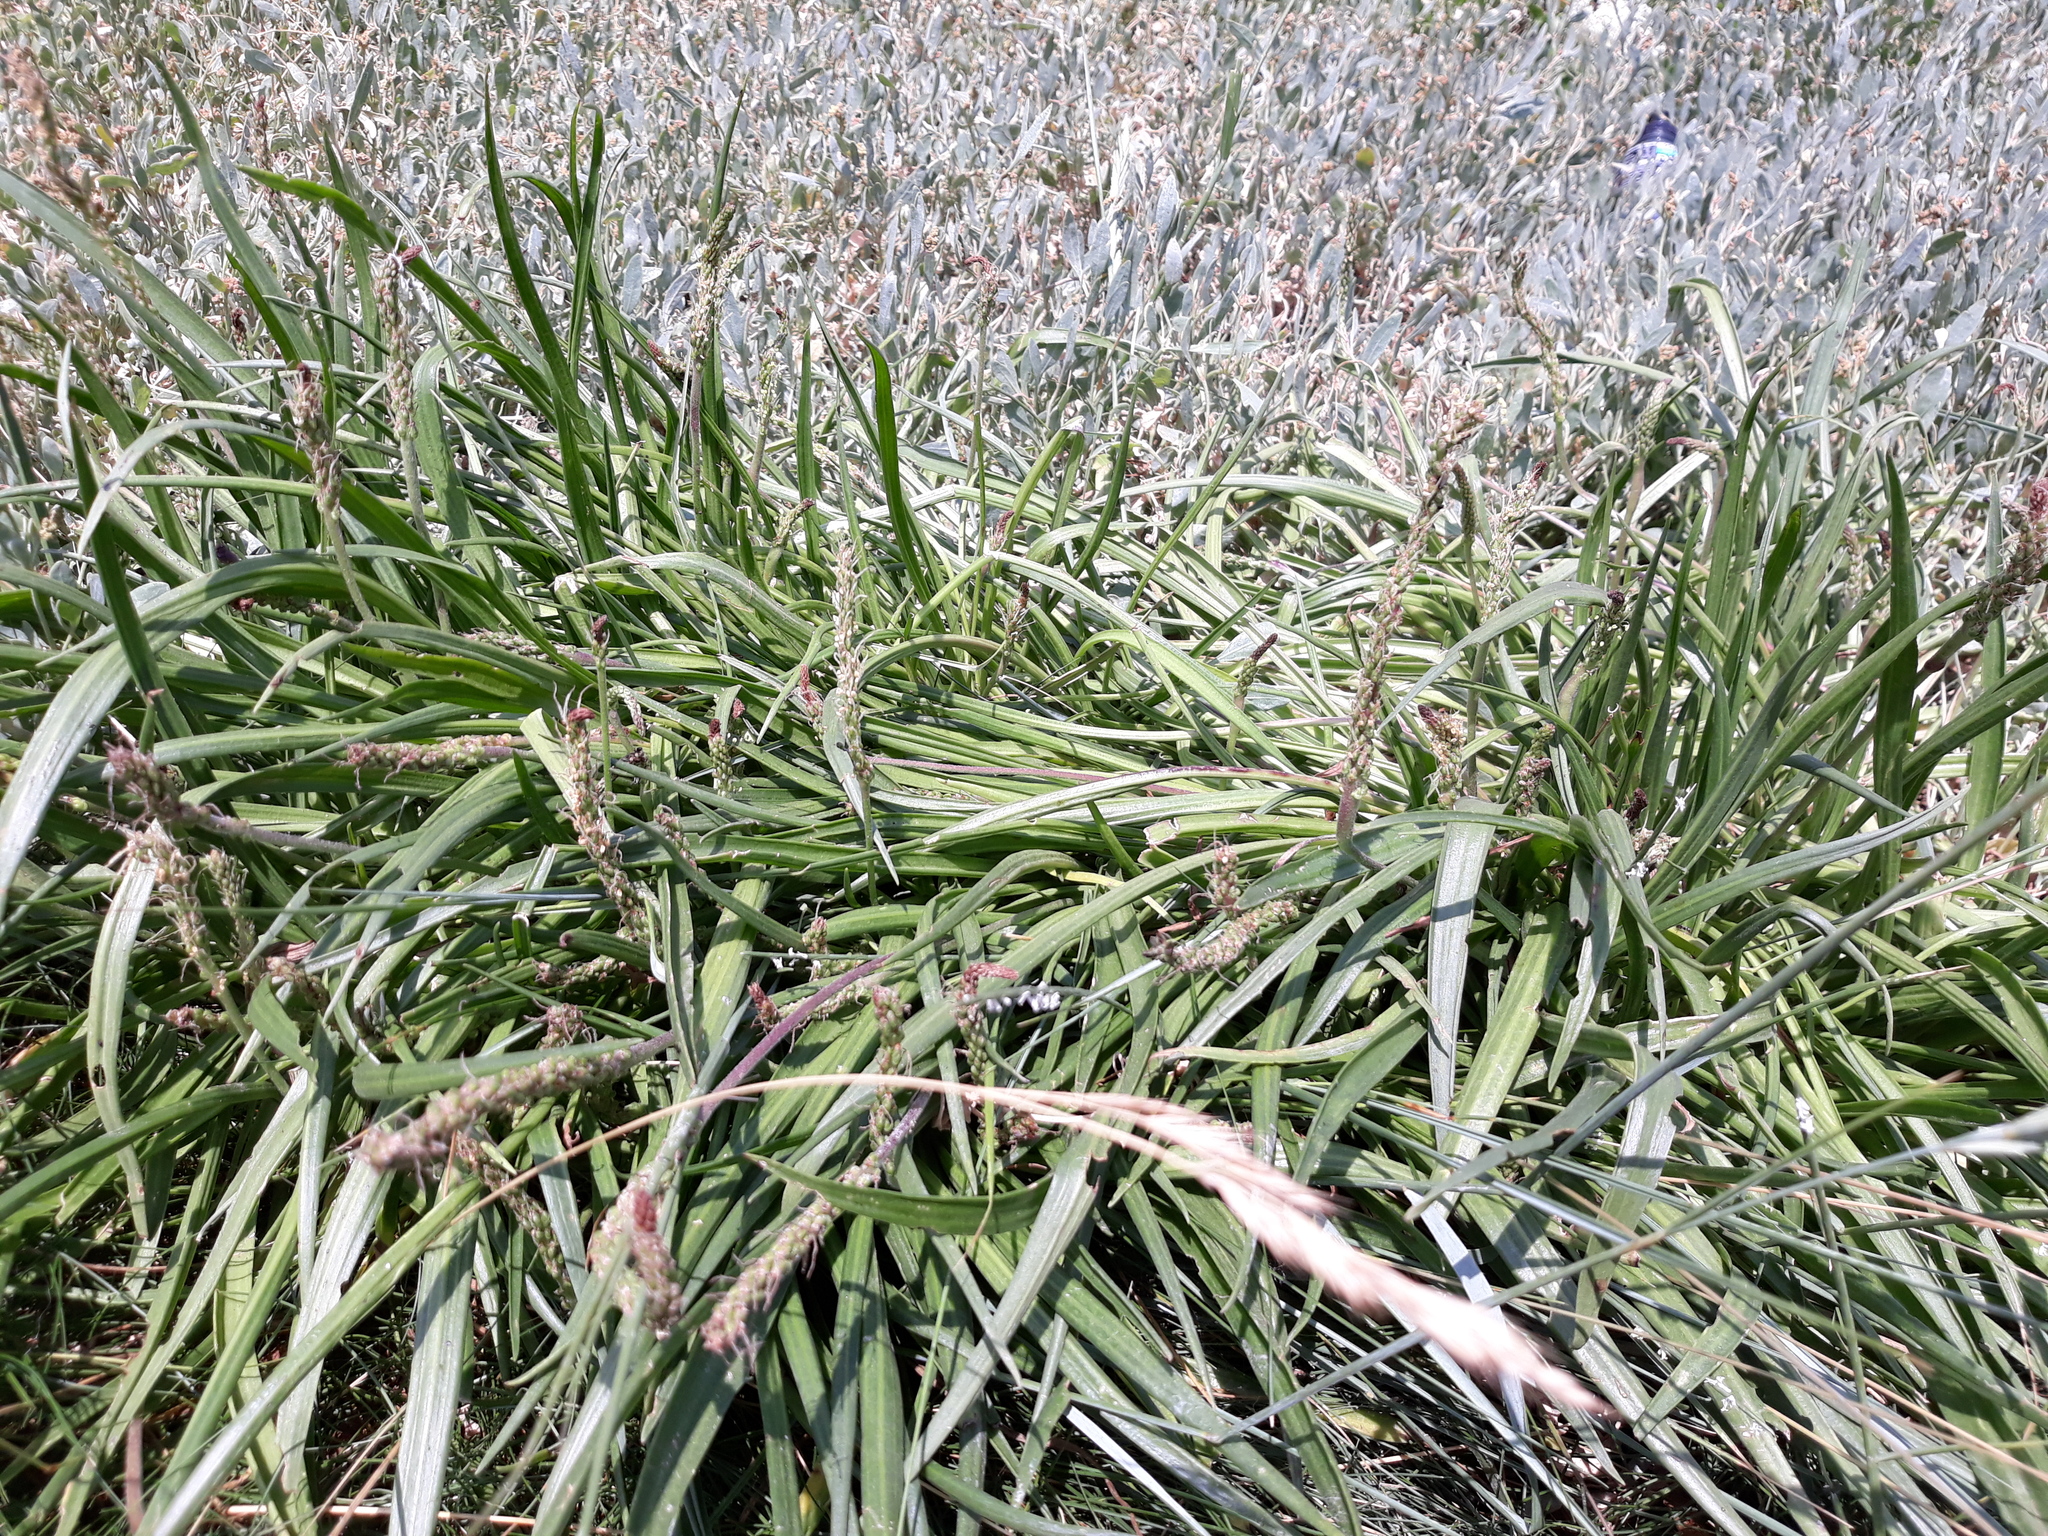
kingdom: Plantae
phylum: Tracheophyta
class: Magnoliopsida
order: Lamiales
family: Plantaginaceae
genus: Plantago
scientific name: Plantago maritima
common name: Sea plantain
